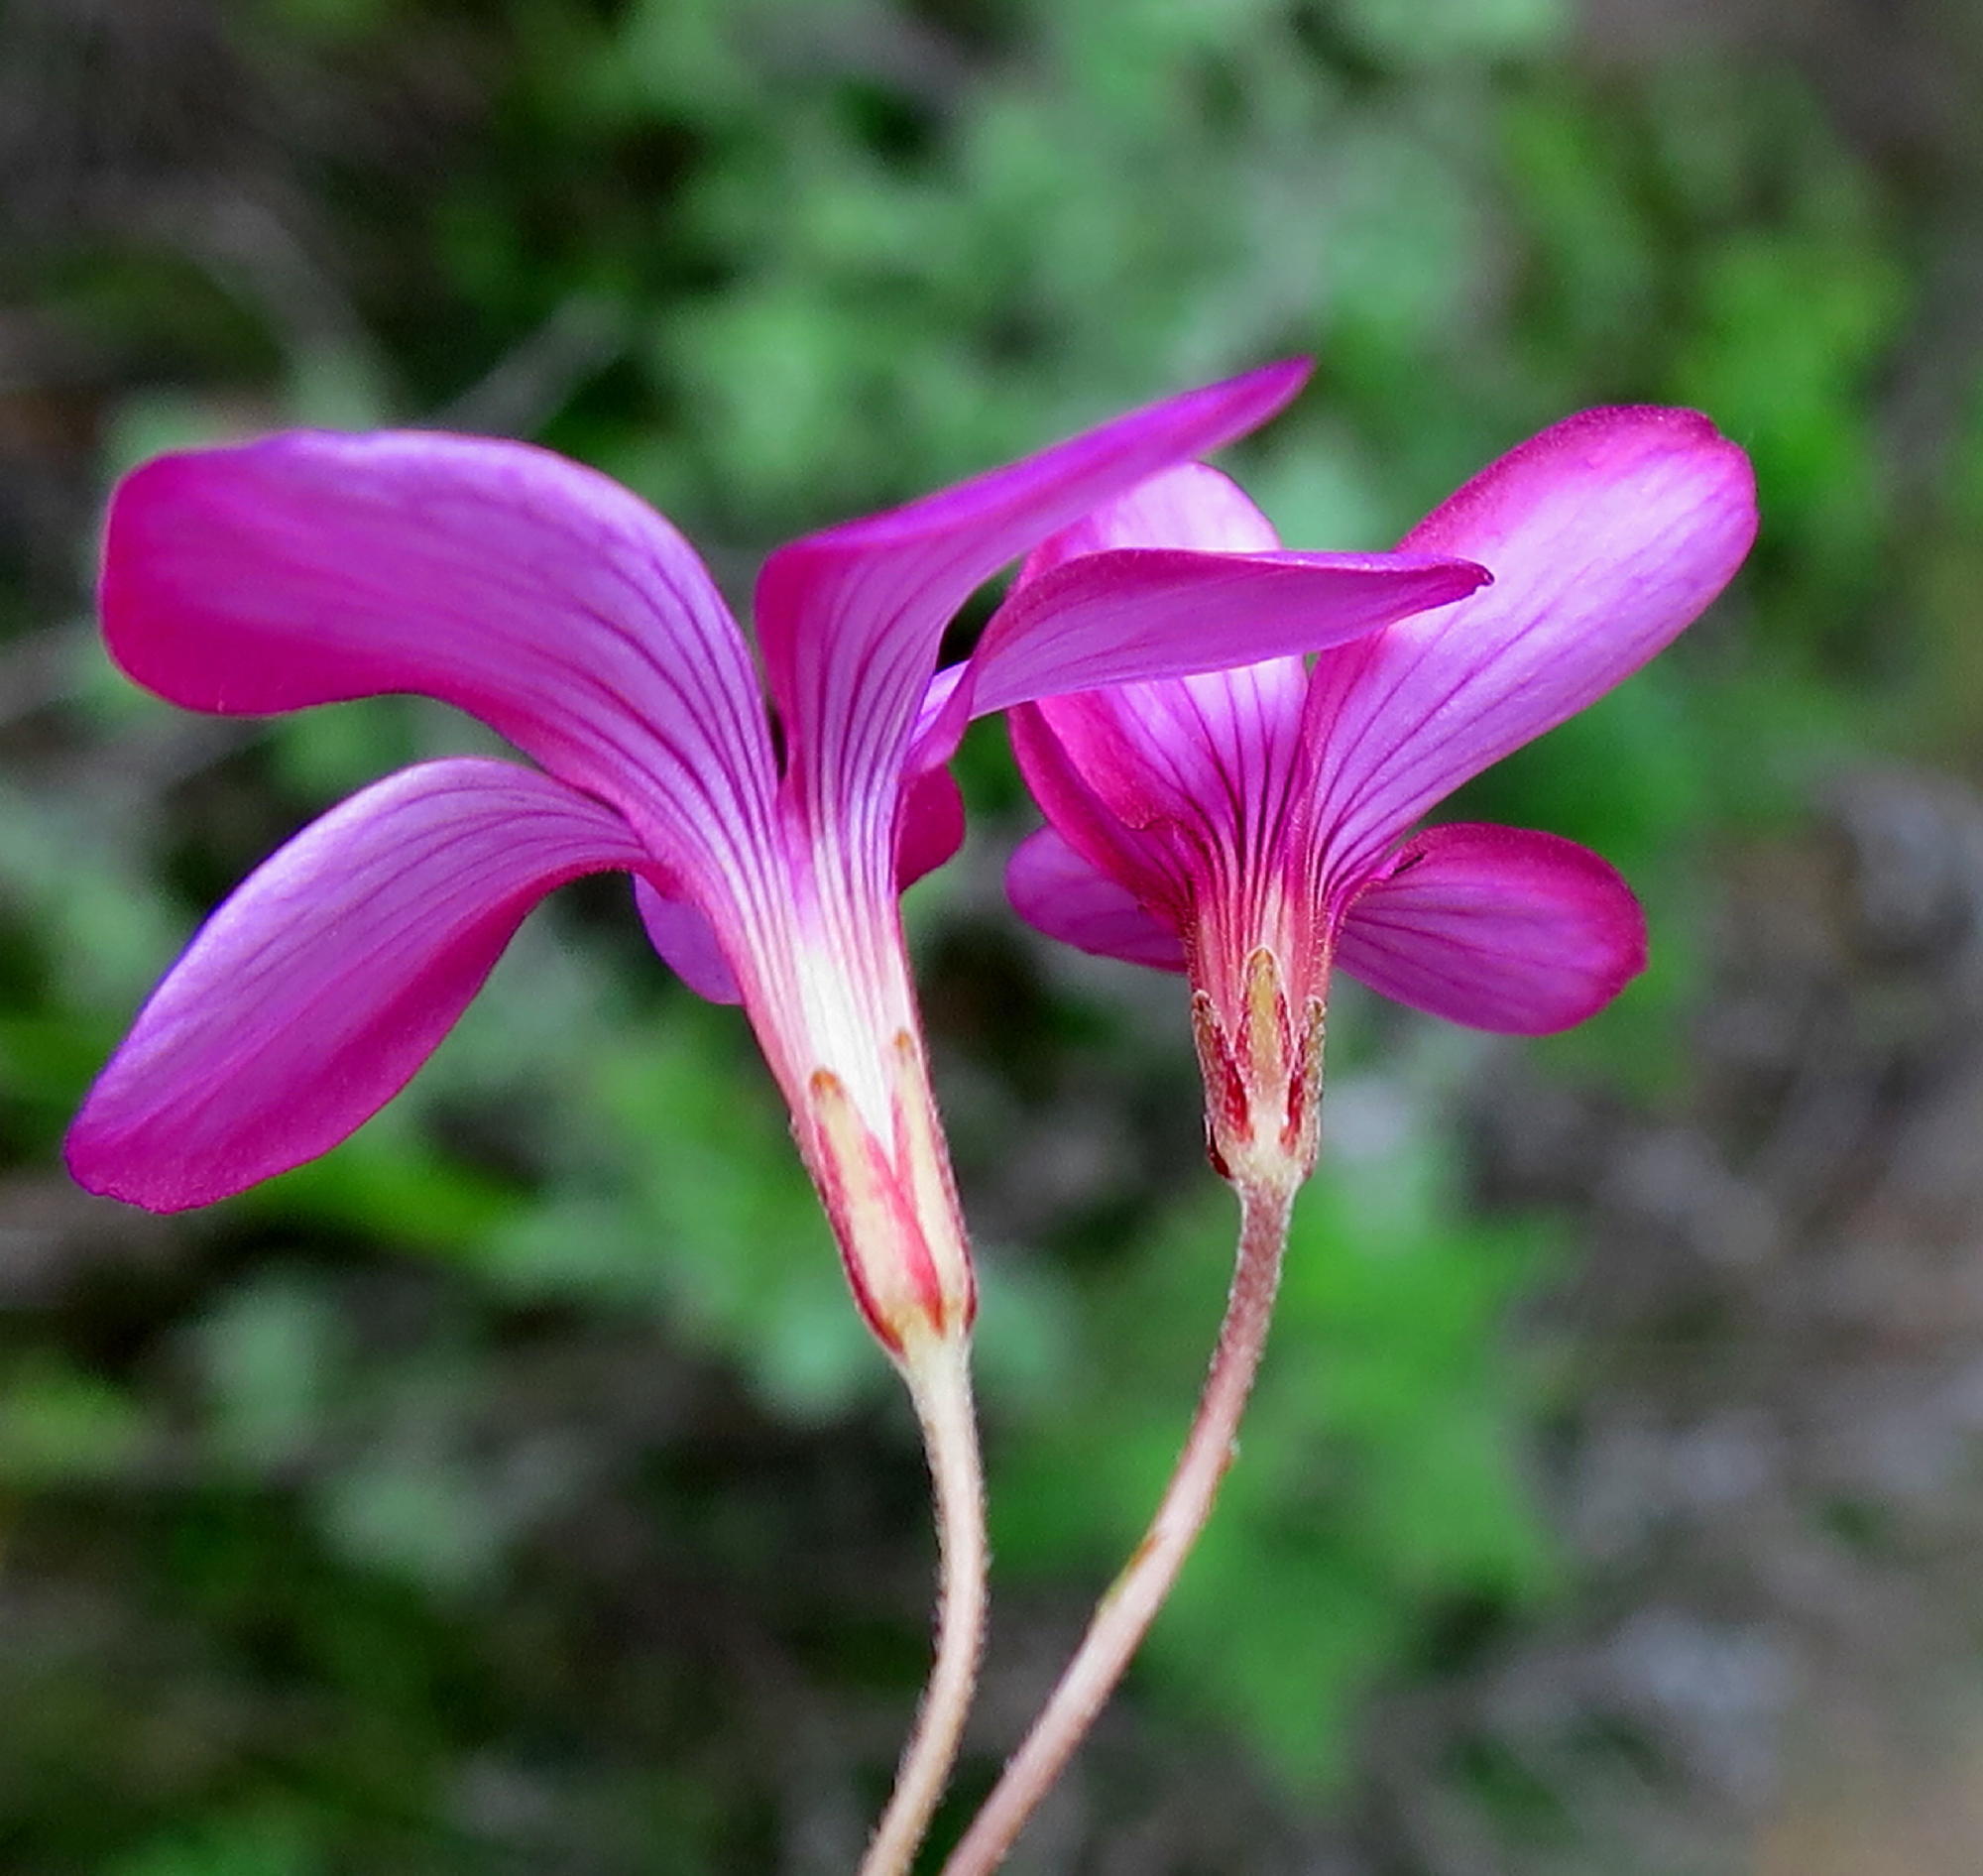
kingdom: Plantae
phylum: Tracheophyta
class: Magnoliopsida
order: Oxalidales
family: Oxalidaceae
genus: Oxalis
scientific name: Oxalis polyphylla
